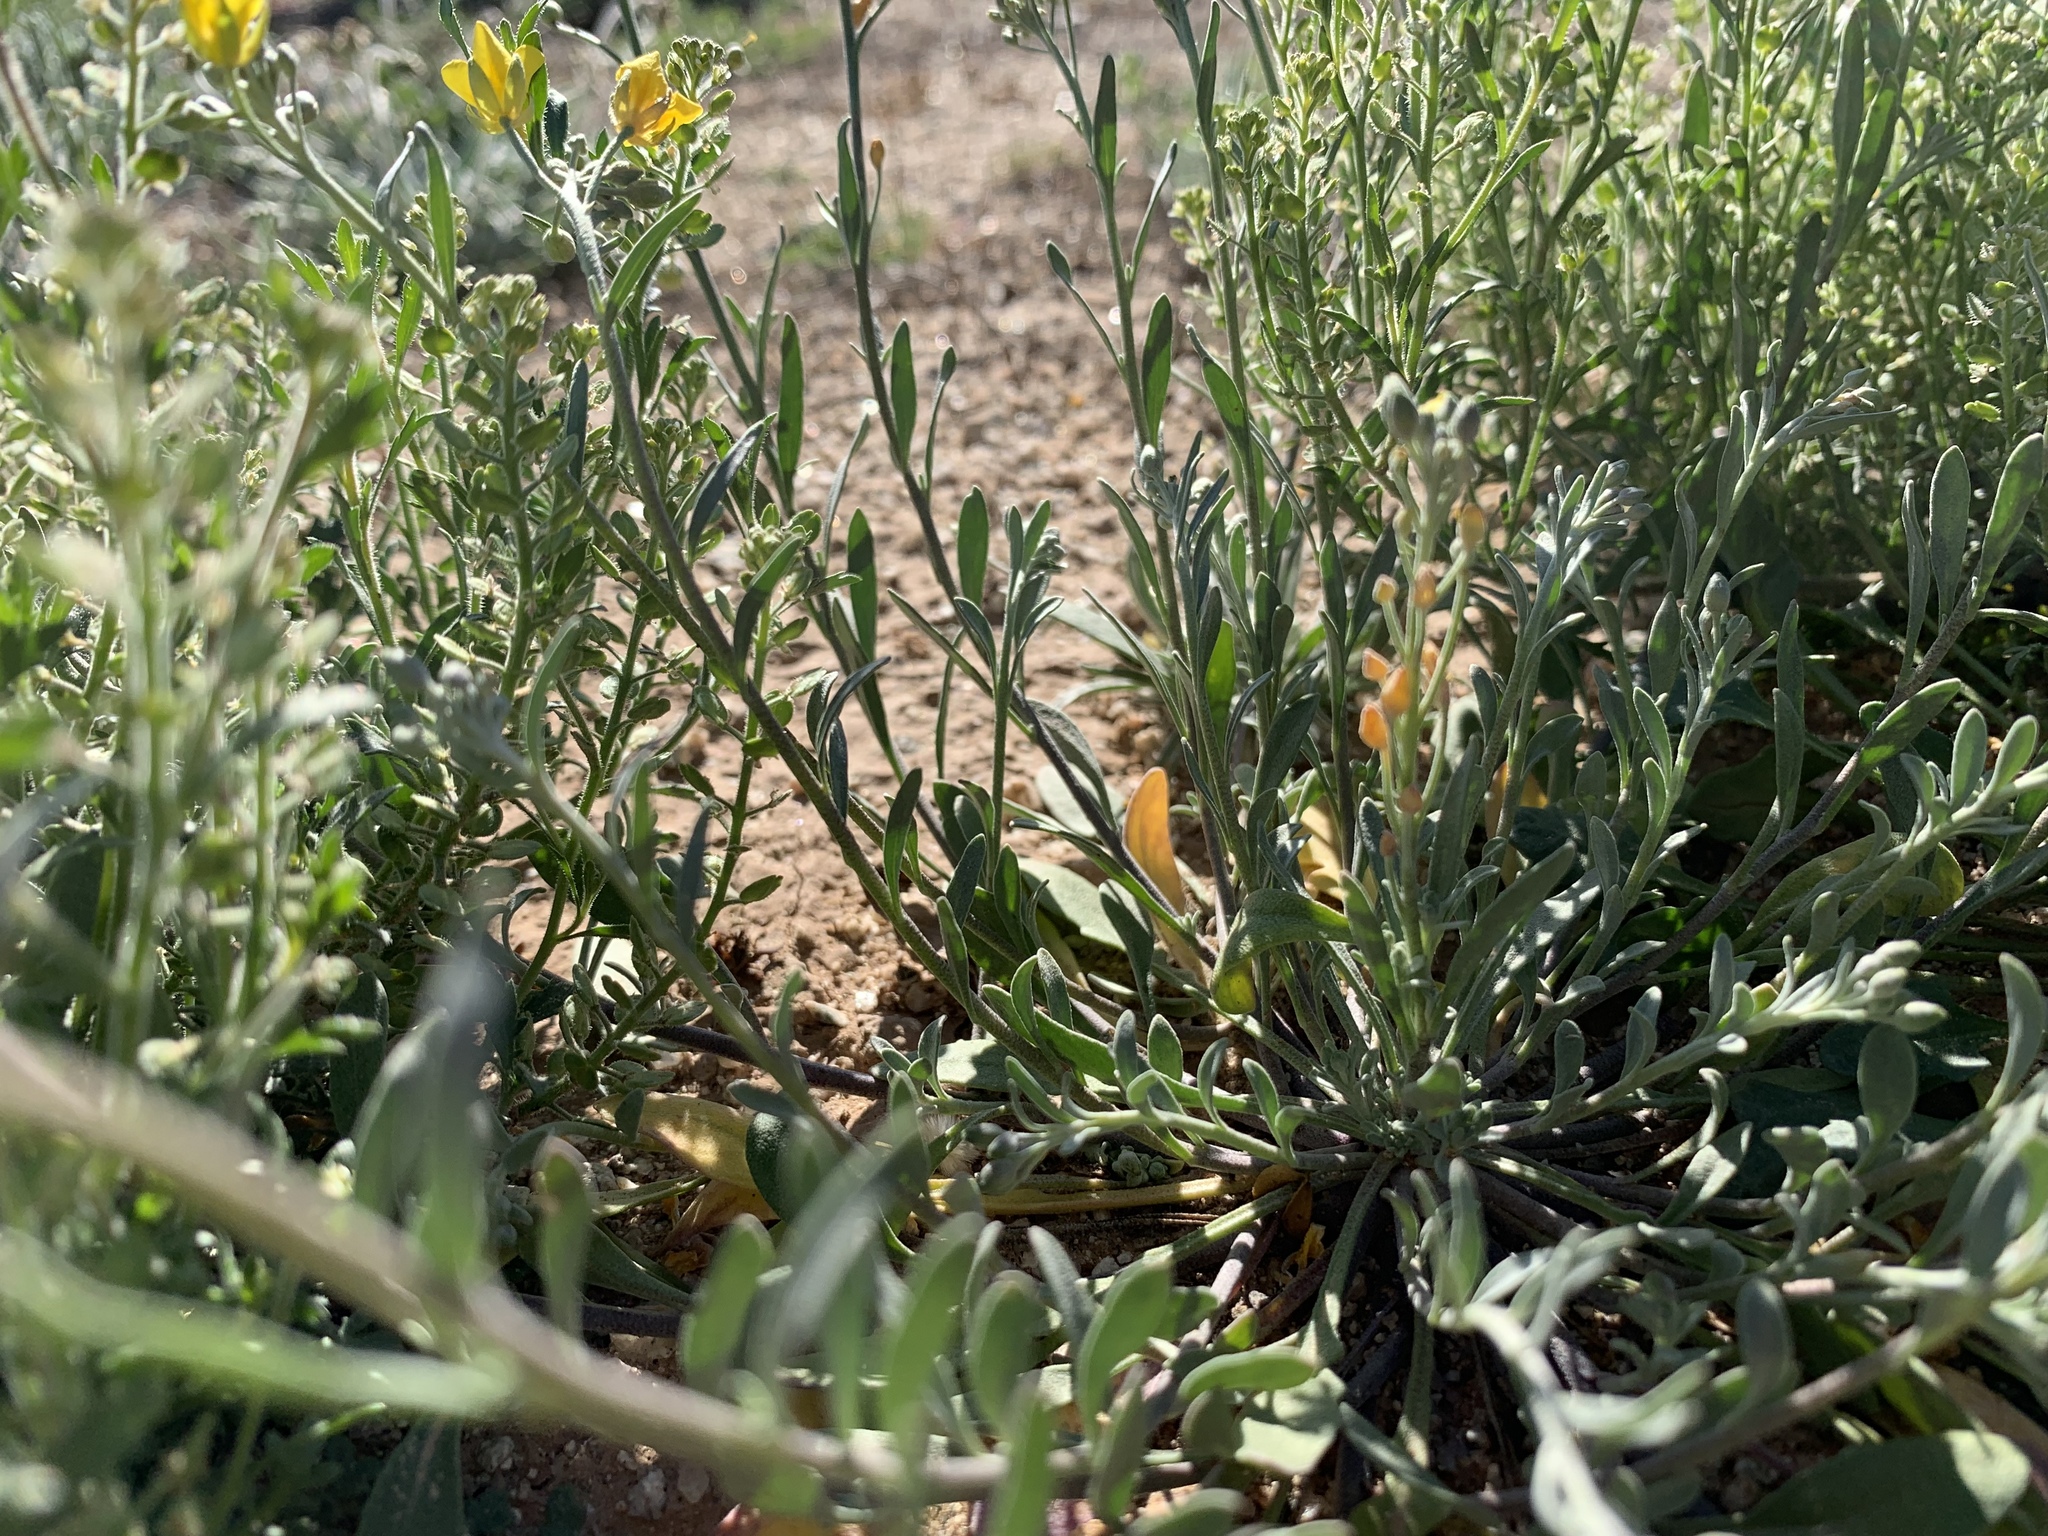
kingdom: Plantae
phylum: Tracheophyta
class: Magnoliopsida
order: Brassicales
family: Brassicaceae
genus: Physaria
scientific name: Physaria tenella
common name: Moapa bladderpod
